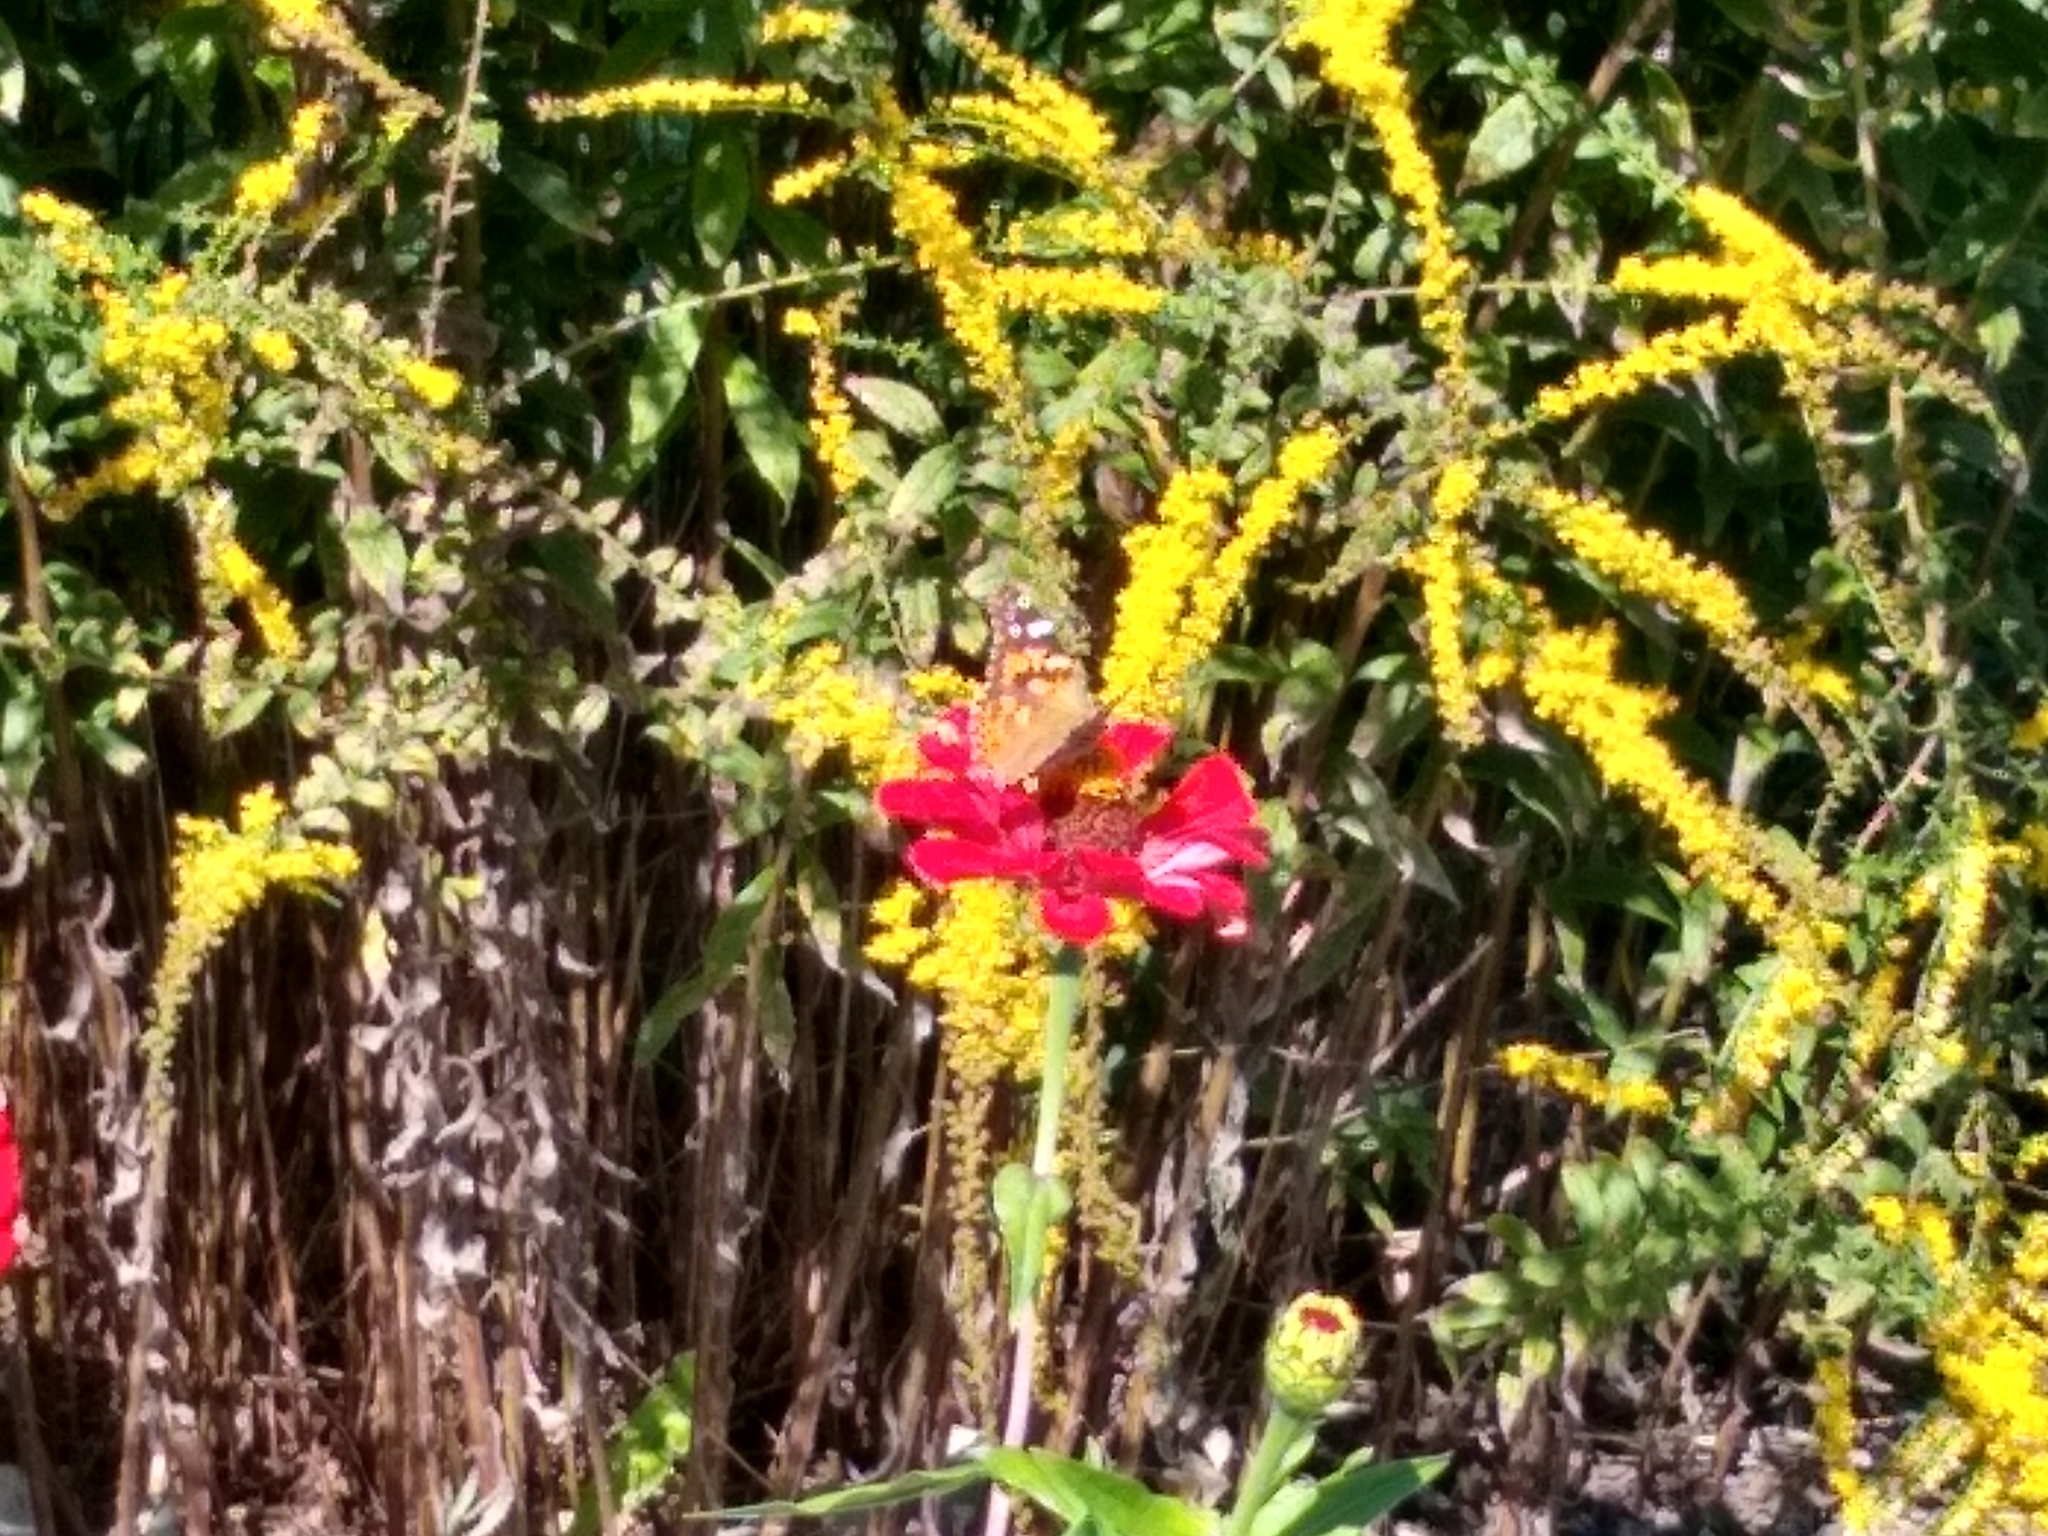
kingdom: Animalia
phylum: Arthropoda
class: Insecta
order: Lepidoptera
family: Nymphalidae
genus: Vanessa
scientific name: Vanessa cardui
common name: Painted lady
